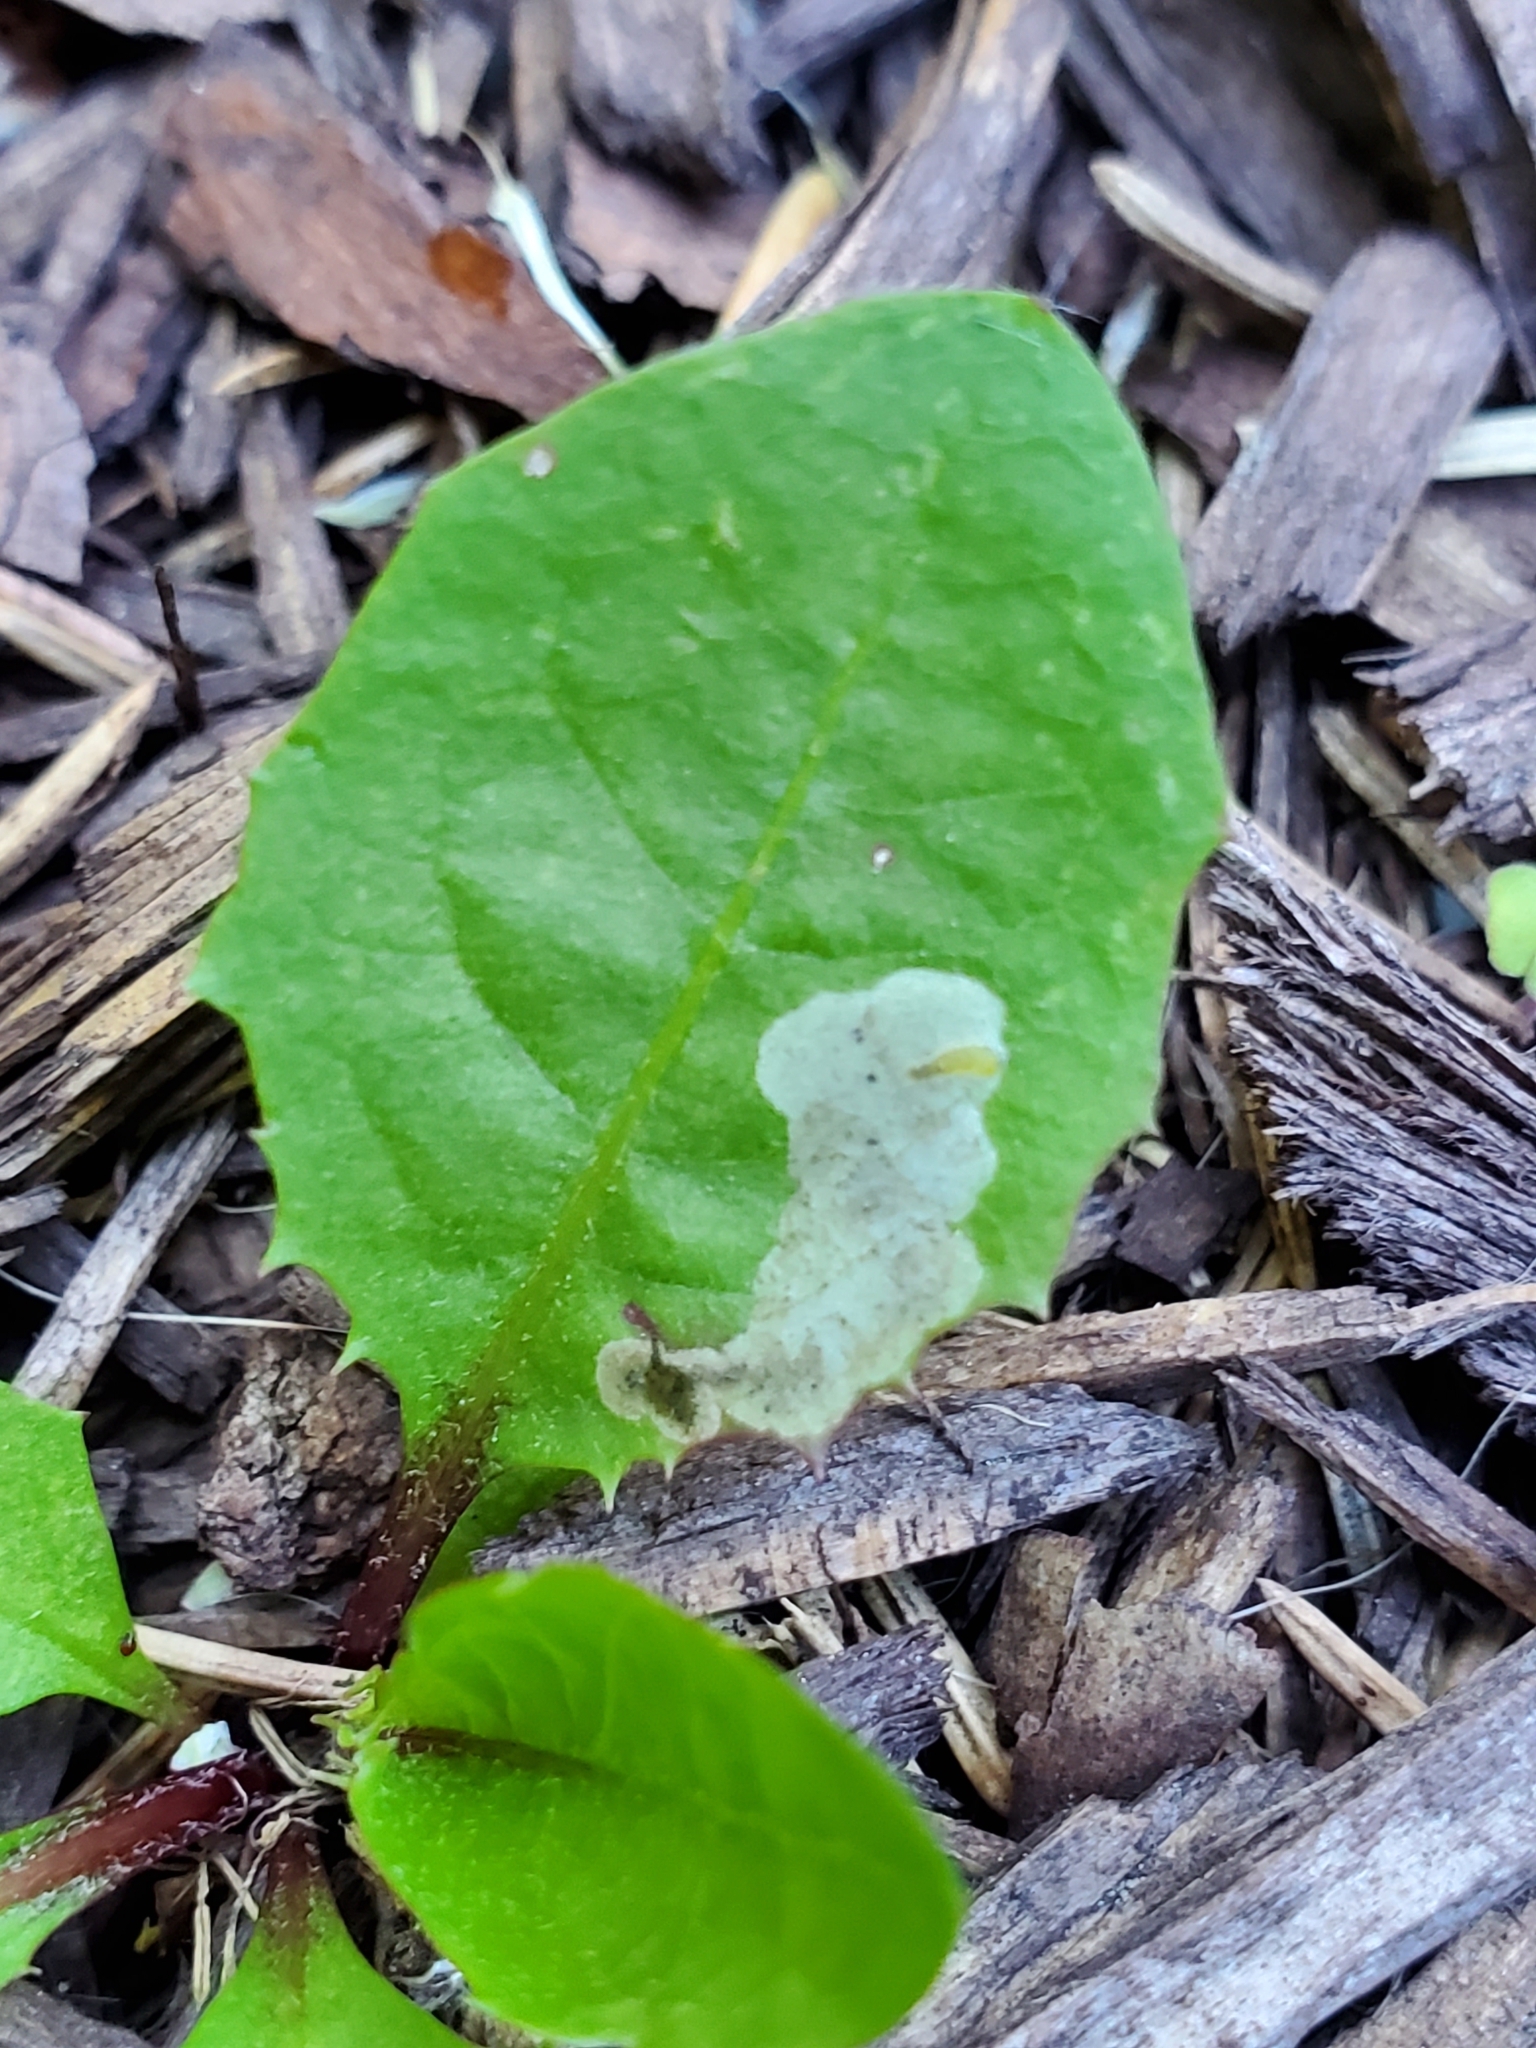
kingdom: Animalia
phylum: Arthropoda
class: Insecta
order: Diptera
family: Agromyzidae
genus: Liriomyza
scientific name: Liriomyza taraxaci
